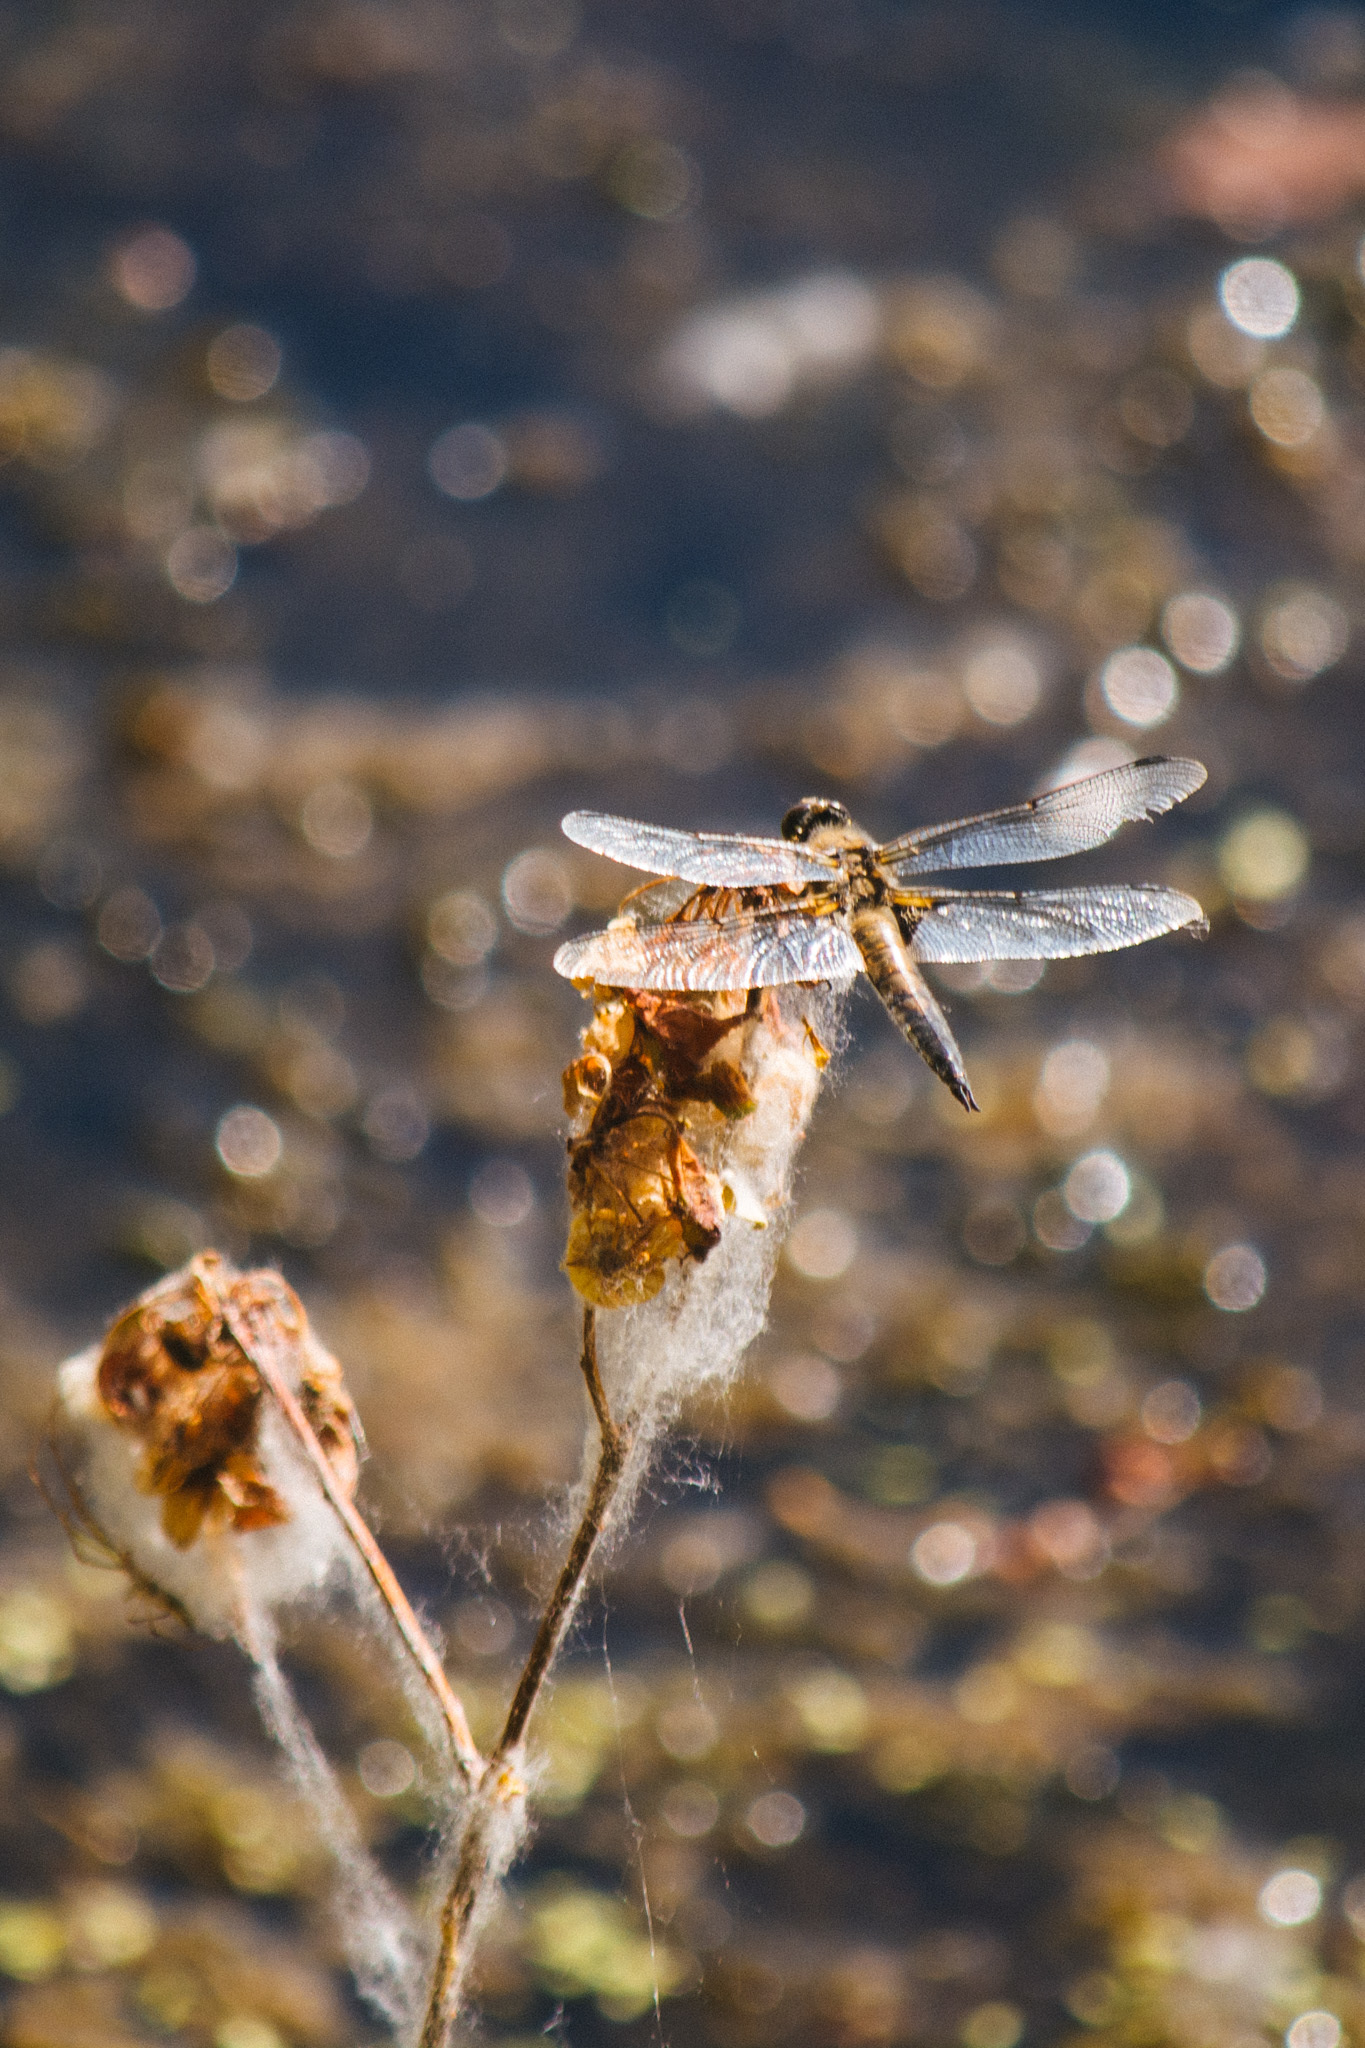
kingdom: Animalia
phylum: Arthropoda
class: Insecta
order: Odonata
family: Libellulidae
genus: Libellula
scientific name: Libellula quadrimaculata
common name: Four-spotted chaser
